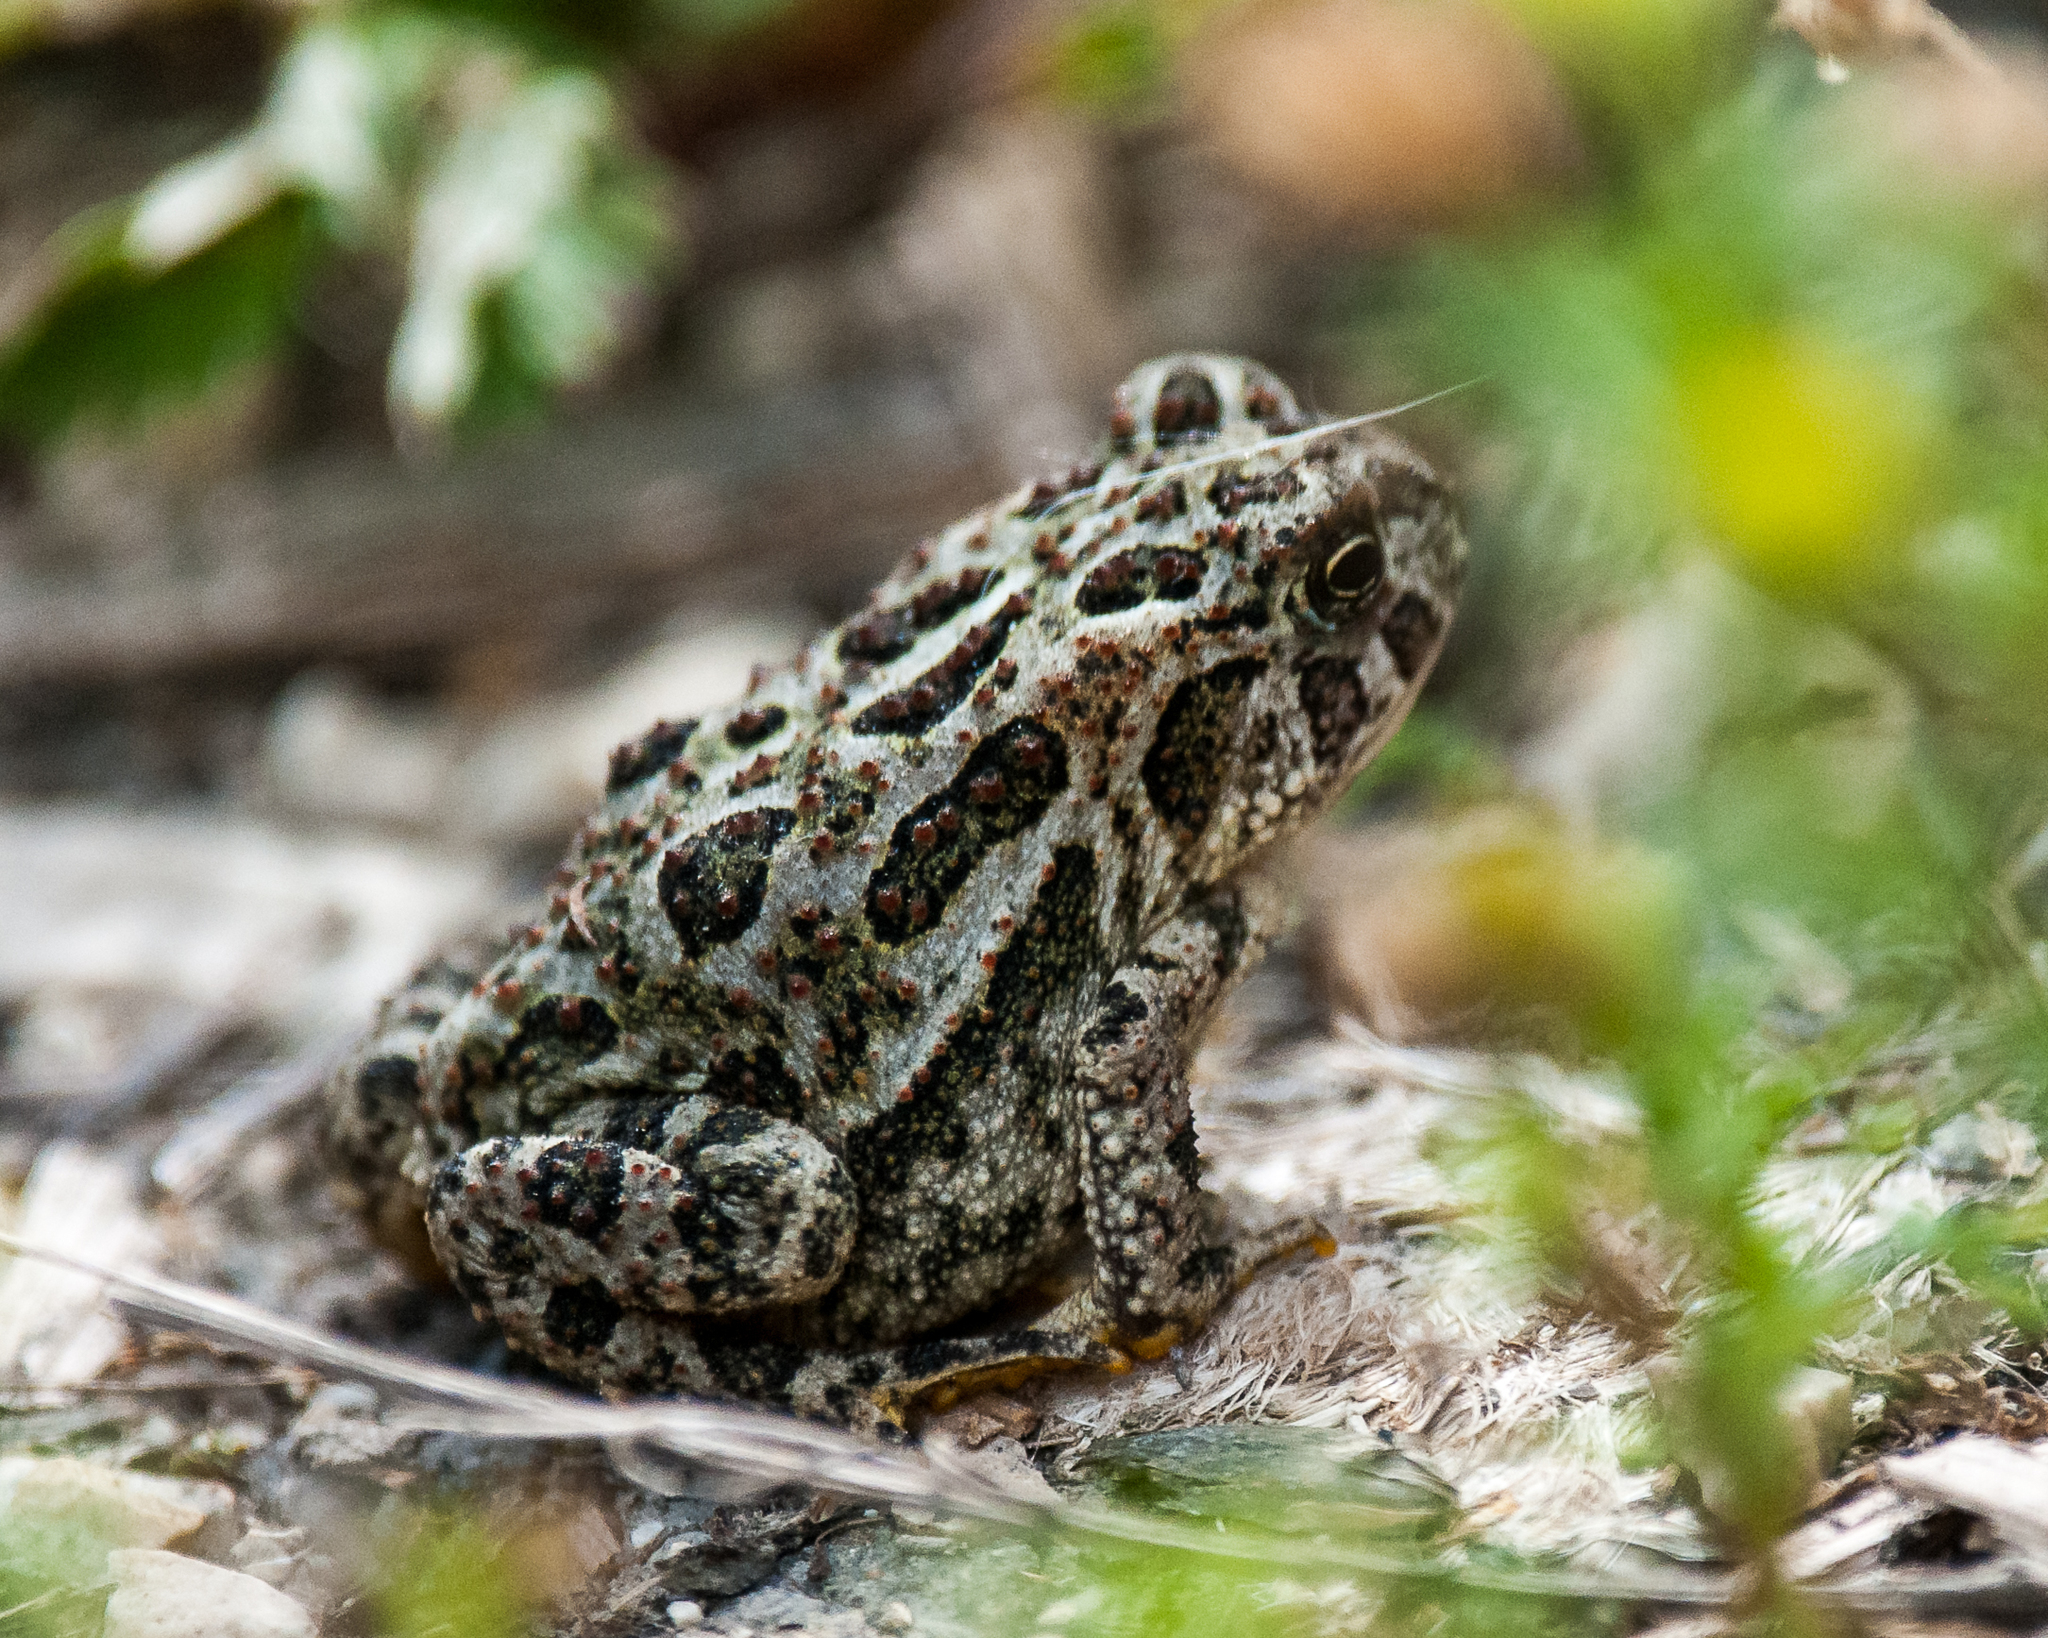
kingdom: Animalia
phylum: Chordata
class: Amphibia
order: Anura
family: Bufonidae
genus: Anaxyrus
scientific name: Anaxyrus hemiophrys
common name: Canadian toad
